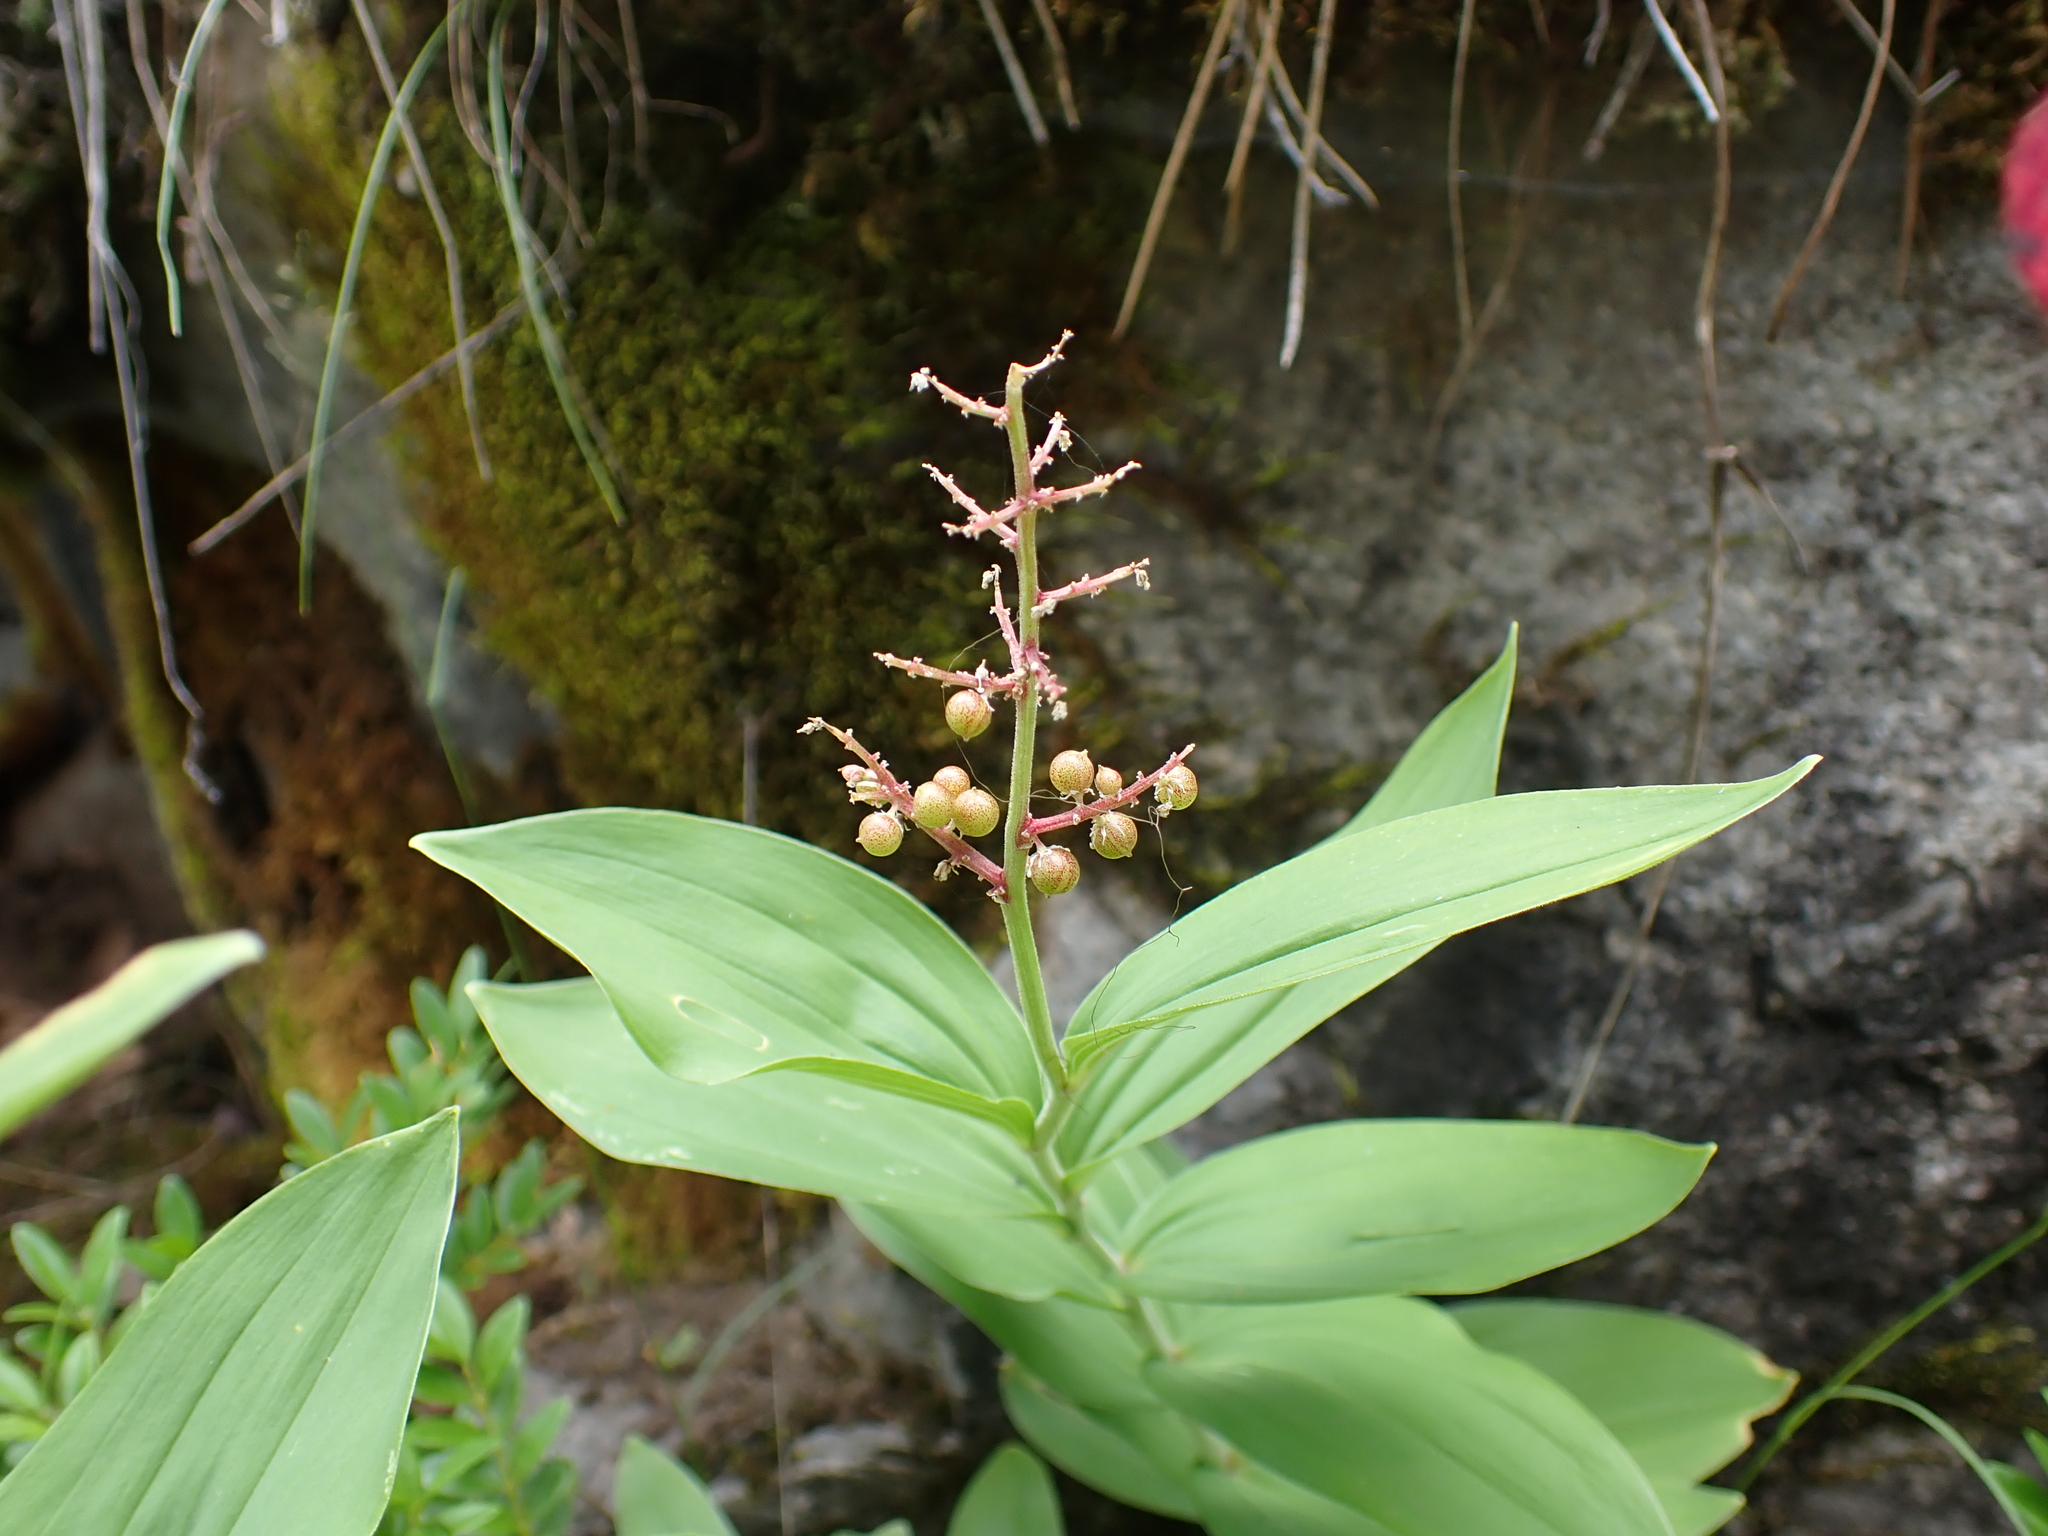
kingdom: Plantae
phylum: Tracheophyta
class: Liliopsida
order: Asparagales
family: Asparagaceae
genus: Maianthemum
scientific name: Maianthemum racemosum
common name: False spikenard
